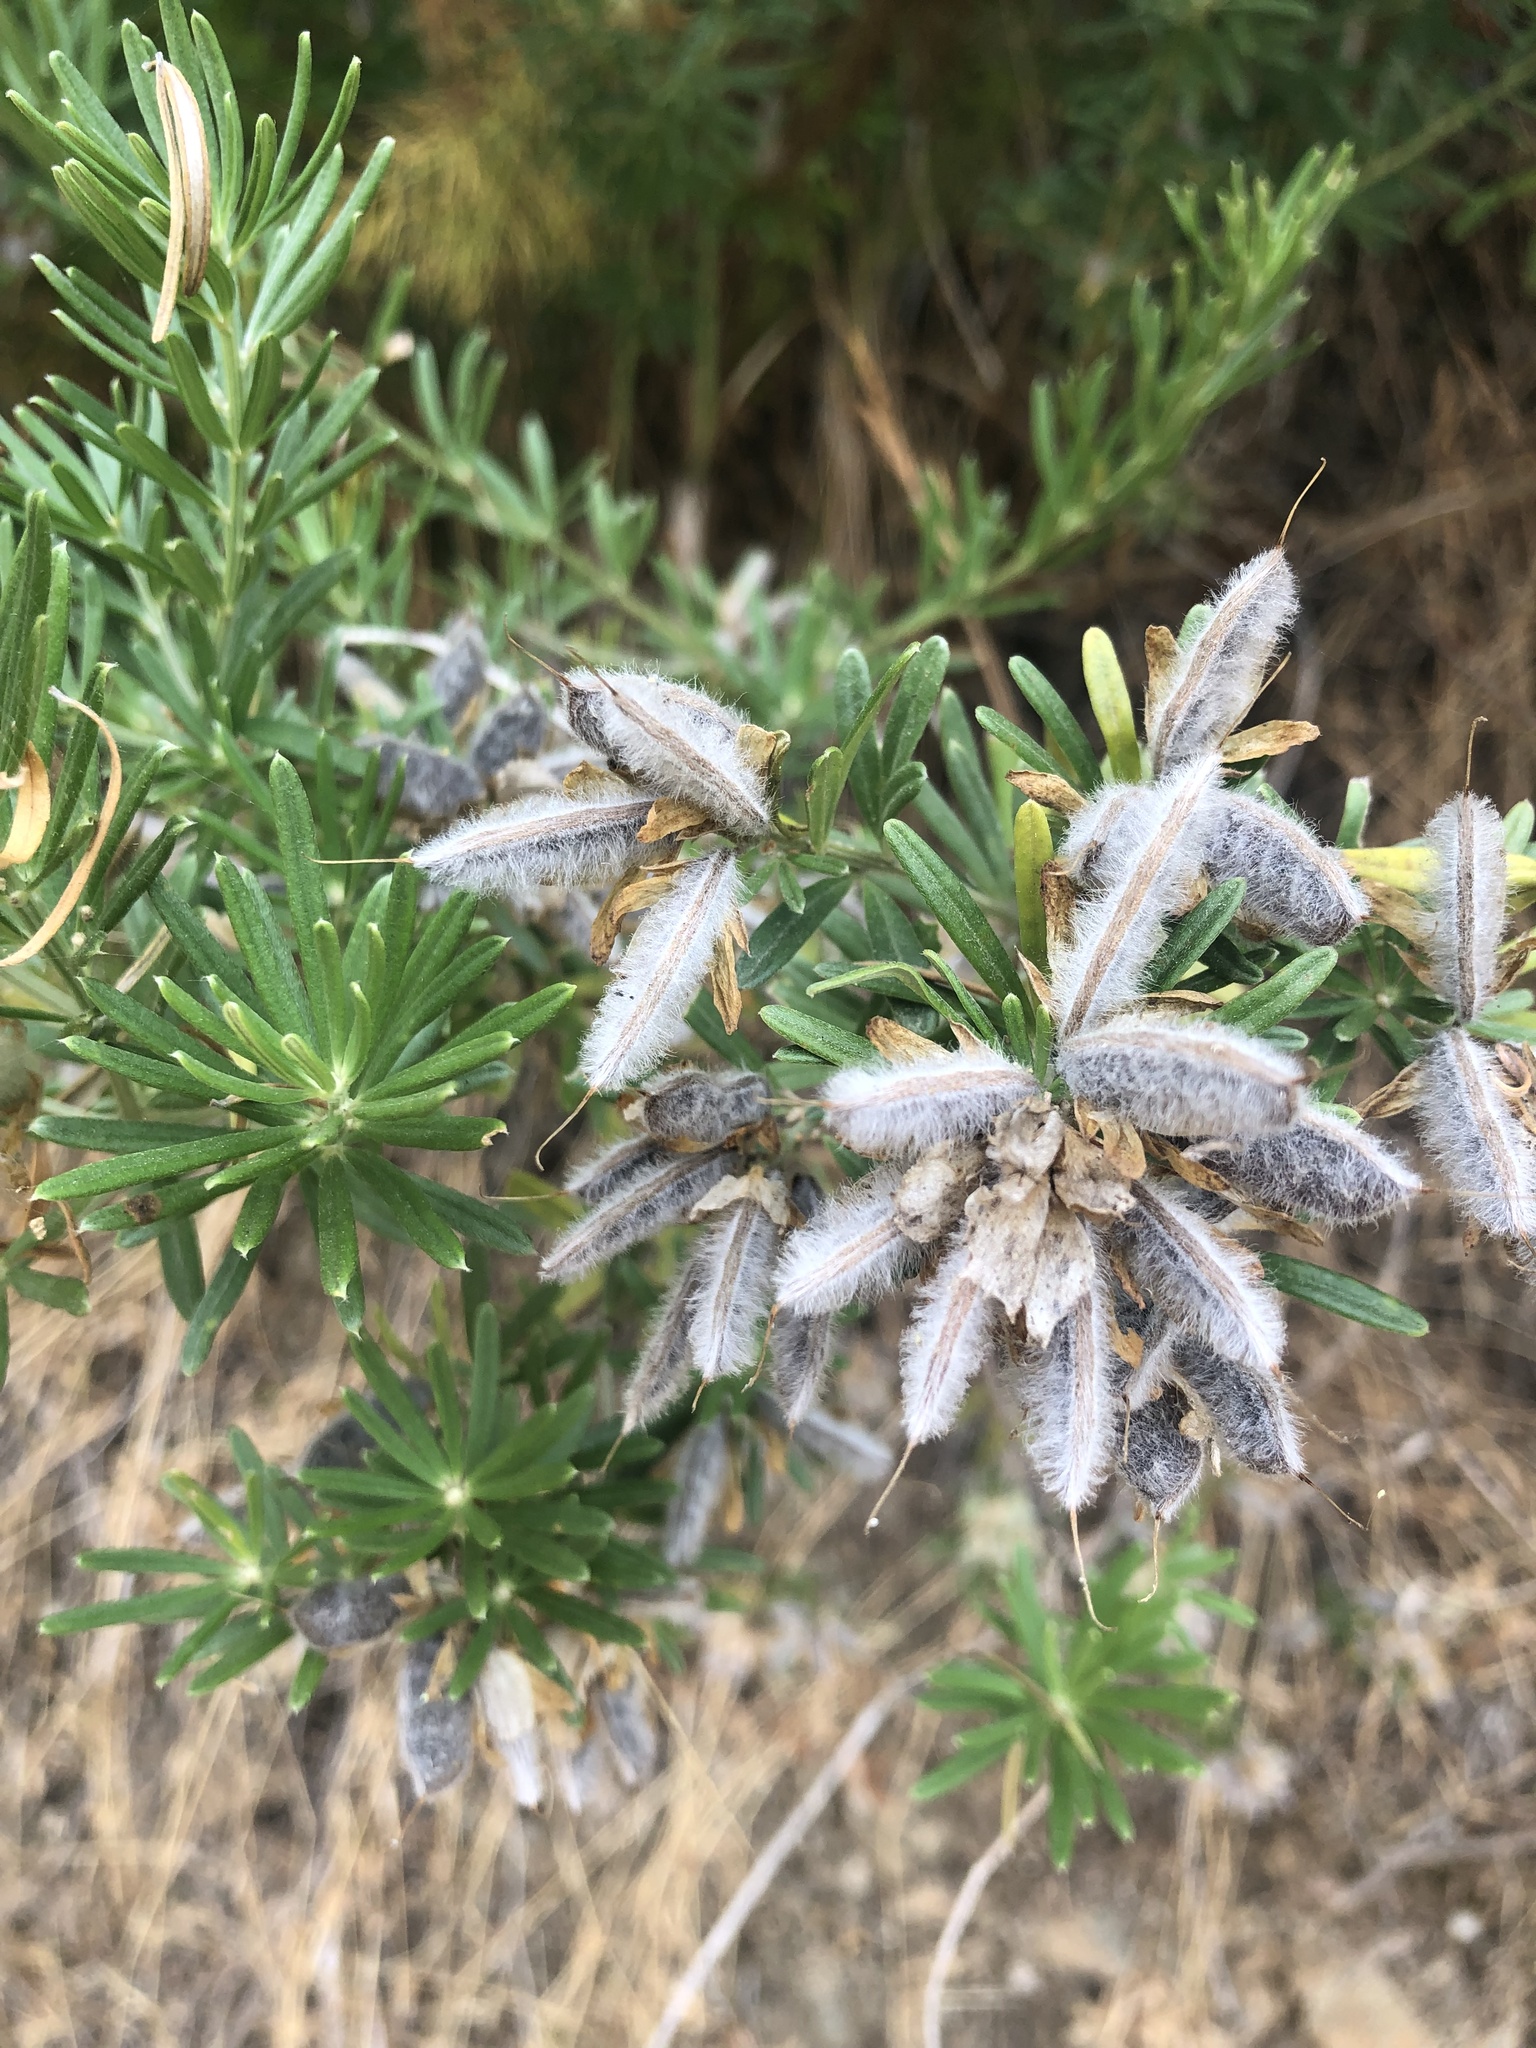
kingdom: Plantae
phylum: Tracheophyta
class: Magnoliopsida
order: Fabales
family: Fabaceae
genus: Genista
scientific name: Genista linifolia
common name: Mediterranean broom
